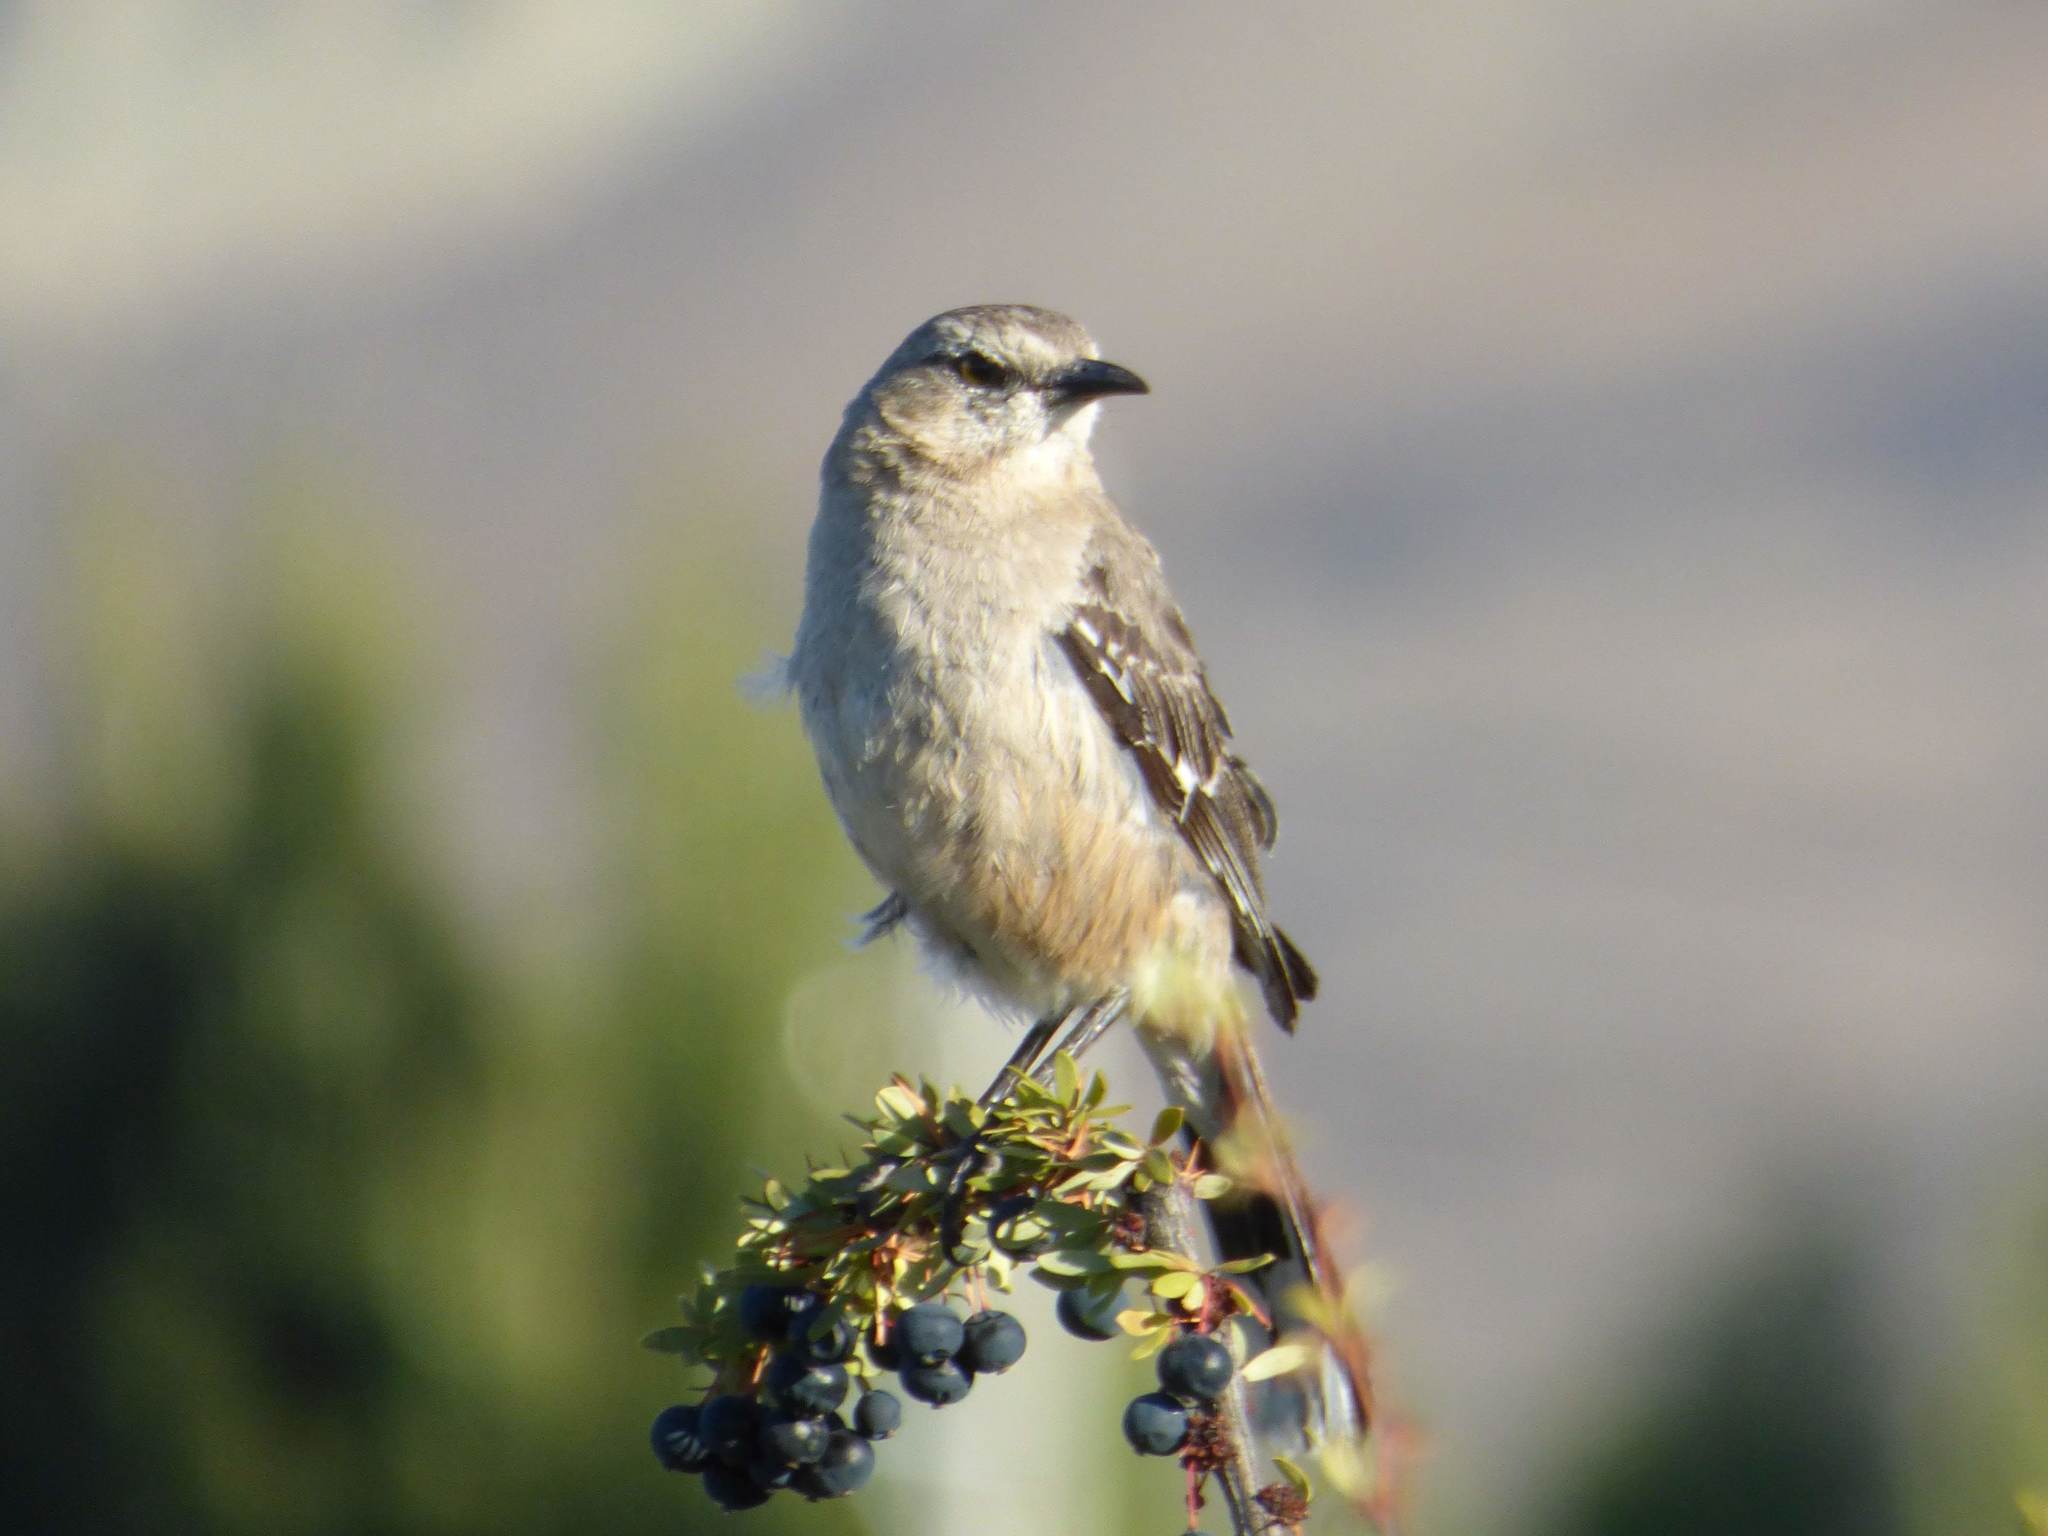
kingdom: Animalia
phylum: Chordata
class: Aves
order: Passeriformes
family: Mimidae
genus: Mimus
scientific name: Mimus patagonicus
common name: Patagonian mockingbird
